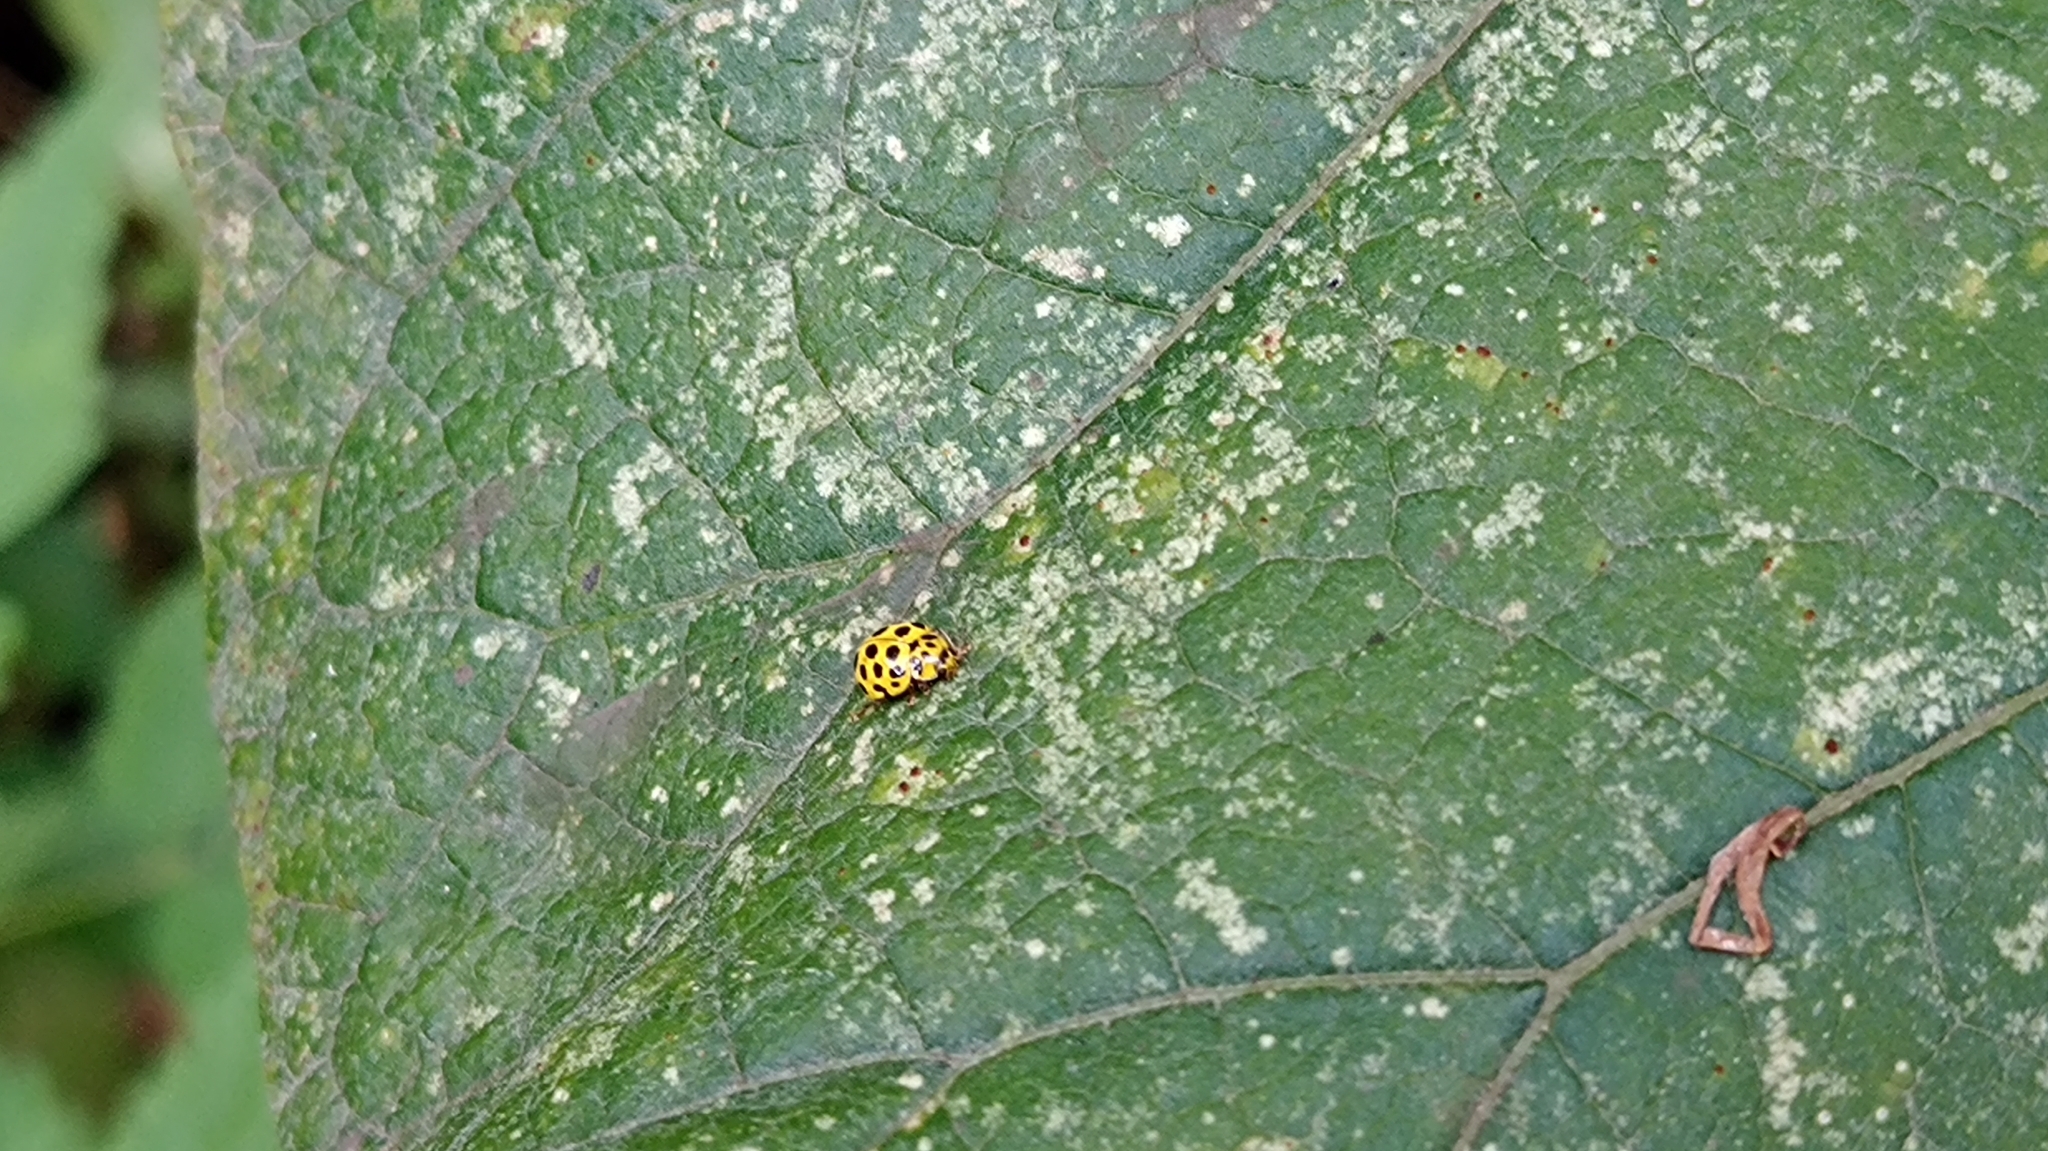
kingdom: Animalia
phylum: Arthropoda
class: Insecta
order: Coleoptera
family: Coccinellidae
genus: Psyllobora
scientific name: Psyllobora vigintiduopunctata
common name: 22-spot ladybird
